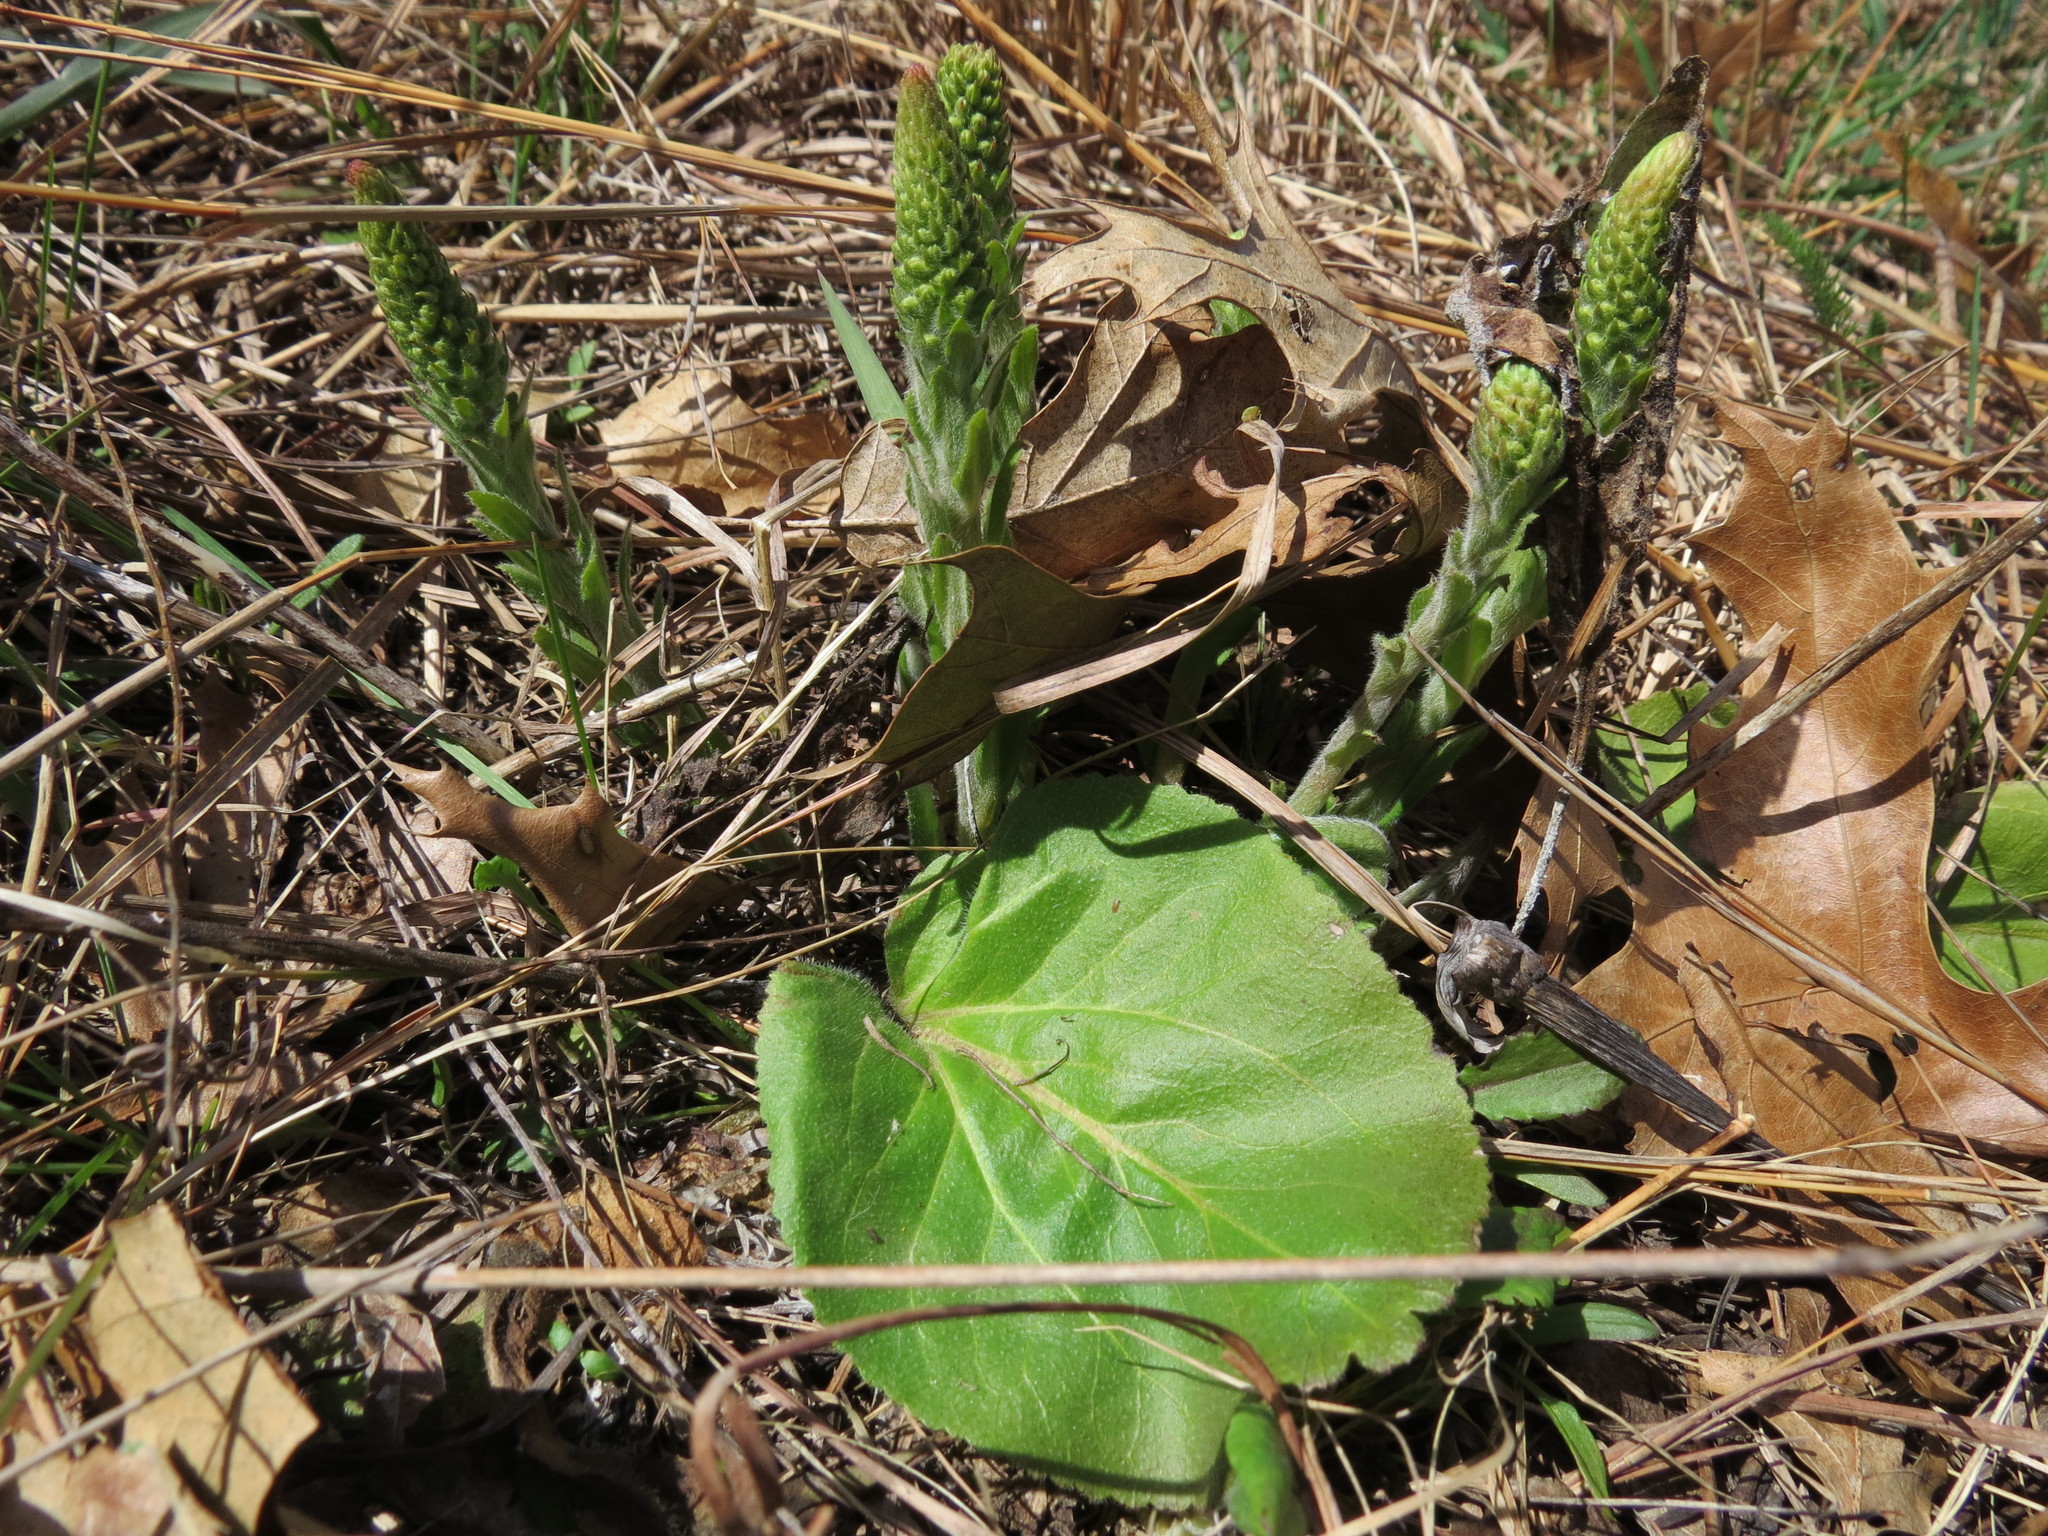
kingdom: Plantae
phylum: Tracheophyta
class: Magnoliopsida
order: Lamiales
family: Plantaginaceae
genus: Synthyris
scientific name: Synthyris bullii
